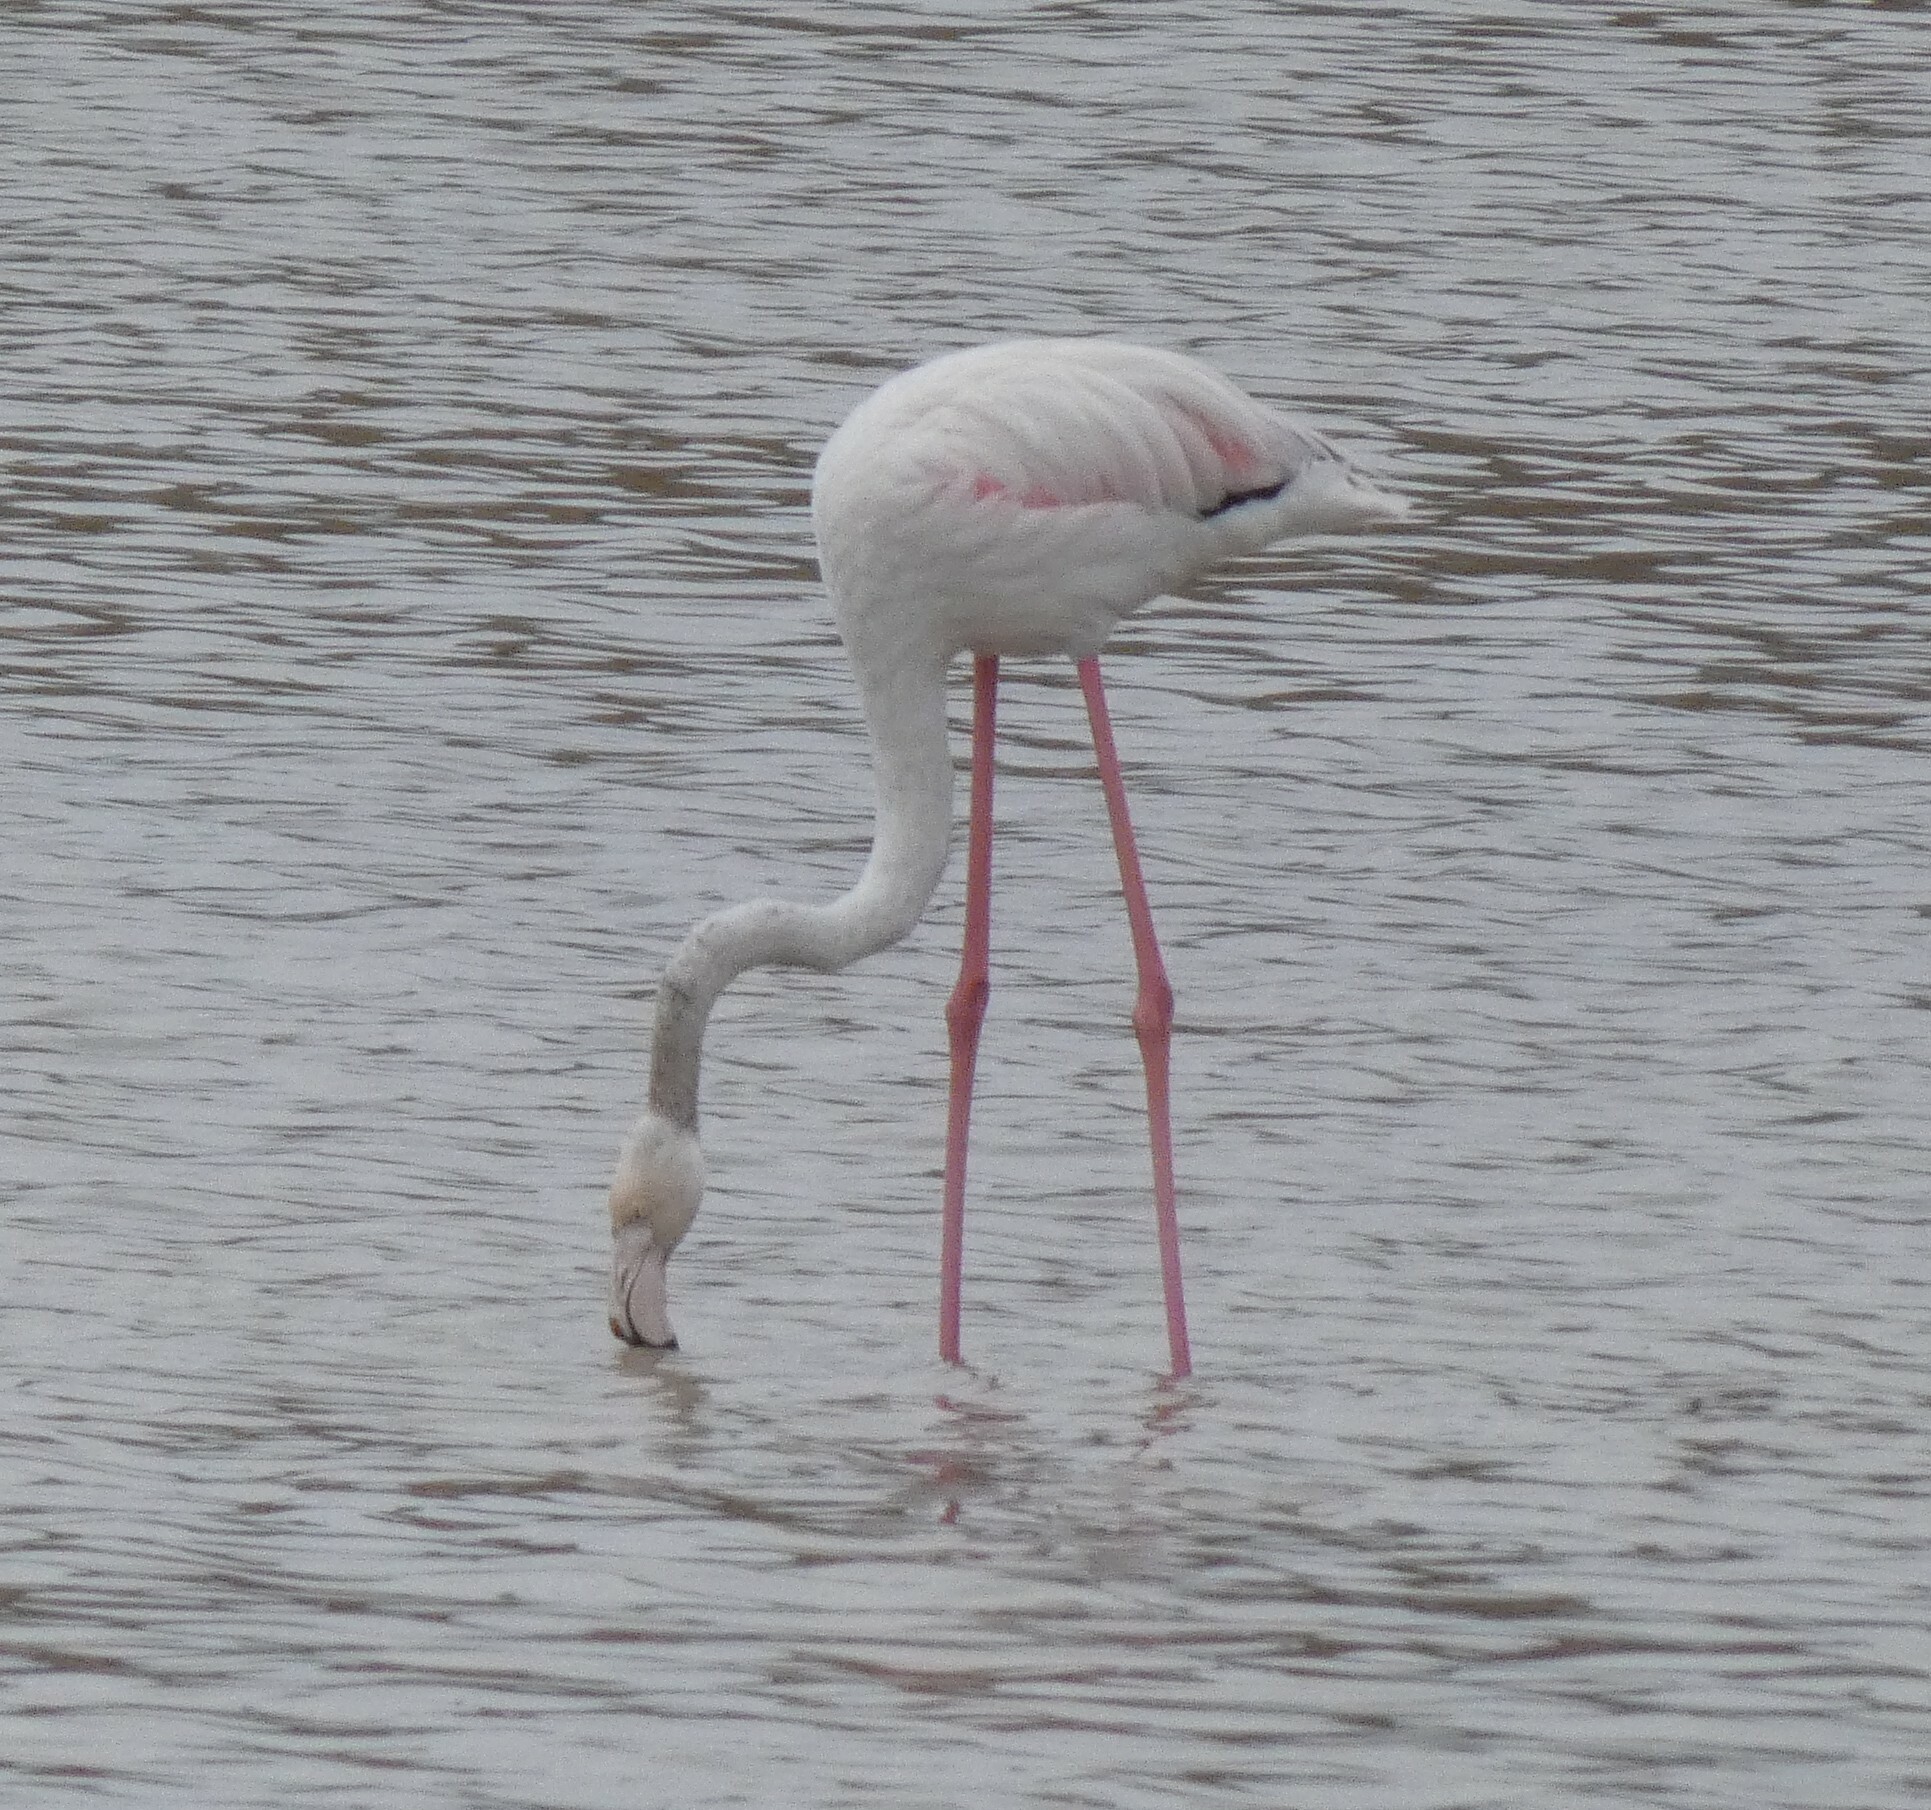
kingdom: Animalia
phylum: Chordata
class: Aves
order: Phoenicopteriformes
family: Phoenicopteridae
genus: Phoenicopterus
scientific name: Phoenicopterus roseus
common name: Greater flamingo
